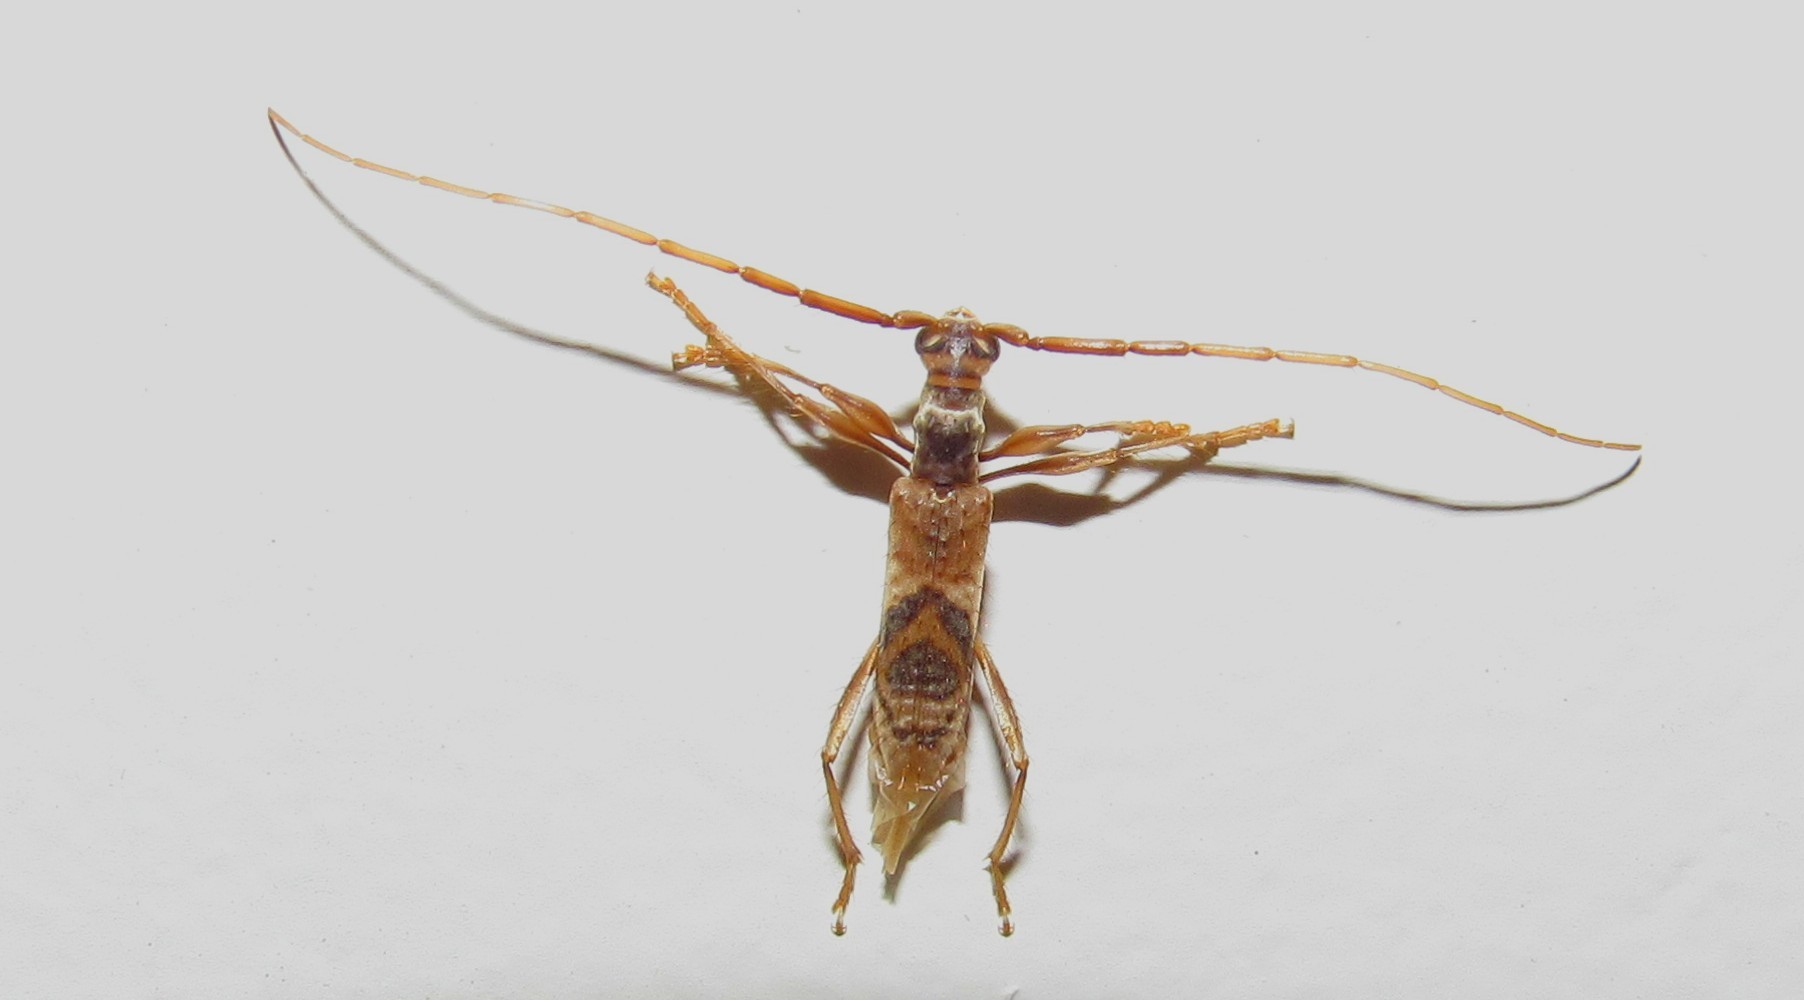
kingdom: Animalia
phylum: Arthropoda
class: Insecta
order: Coleoptera
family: Cerambycidae
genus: Compsibidion
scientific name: Compsibidion vanum
